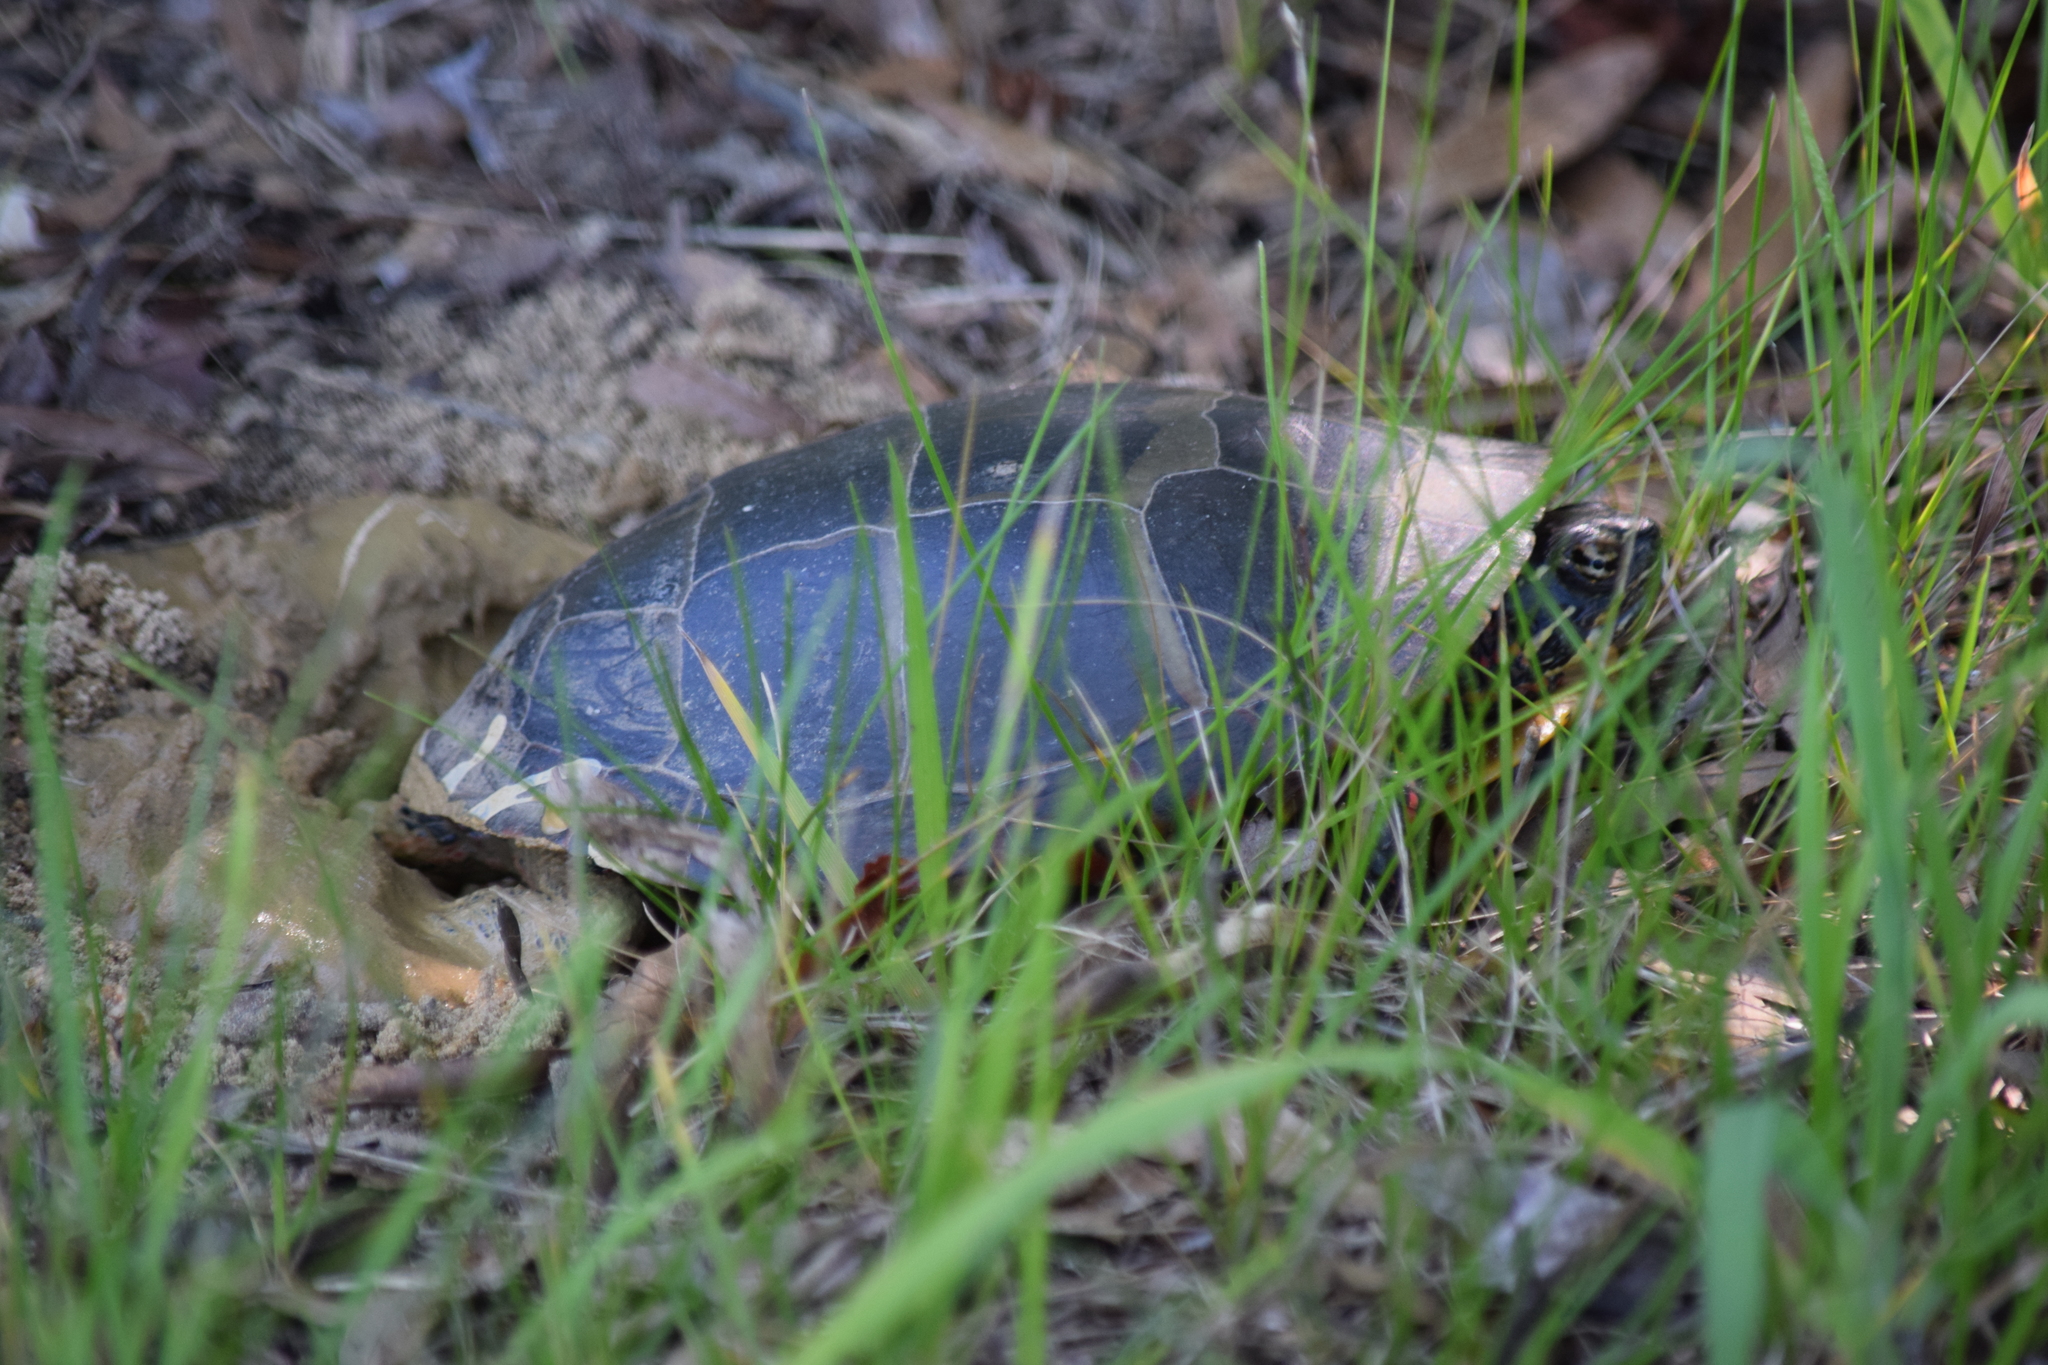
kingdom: Animalia
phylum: Chordata
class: Testudines
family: Emydidae
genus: Chrysemys
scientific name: Chrysemys picta
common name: Painted turtle
